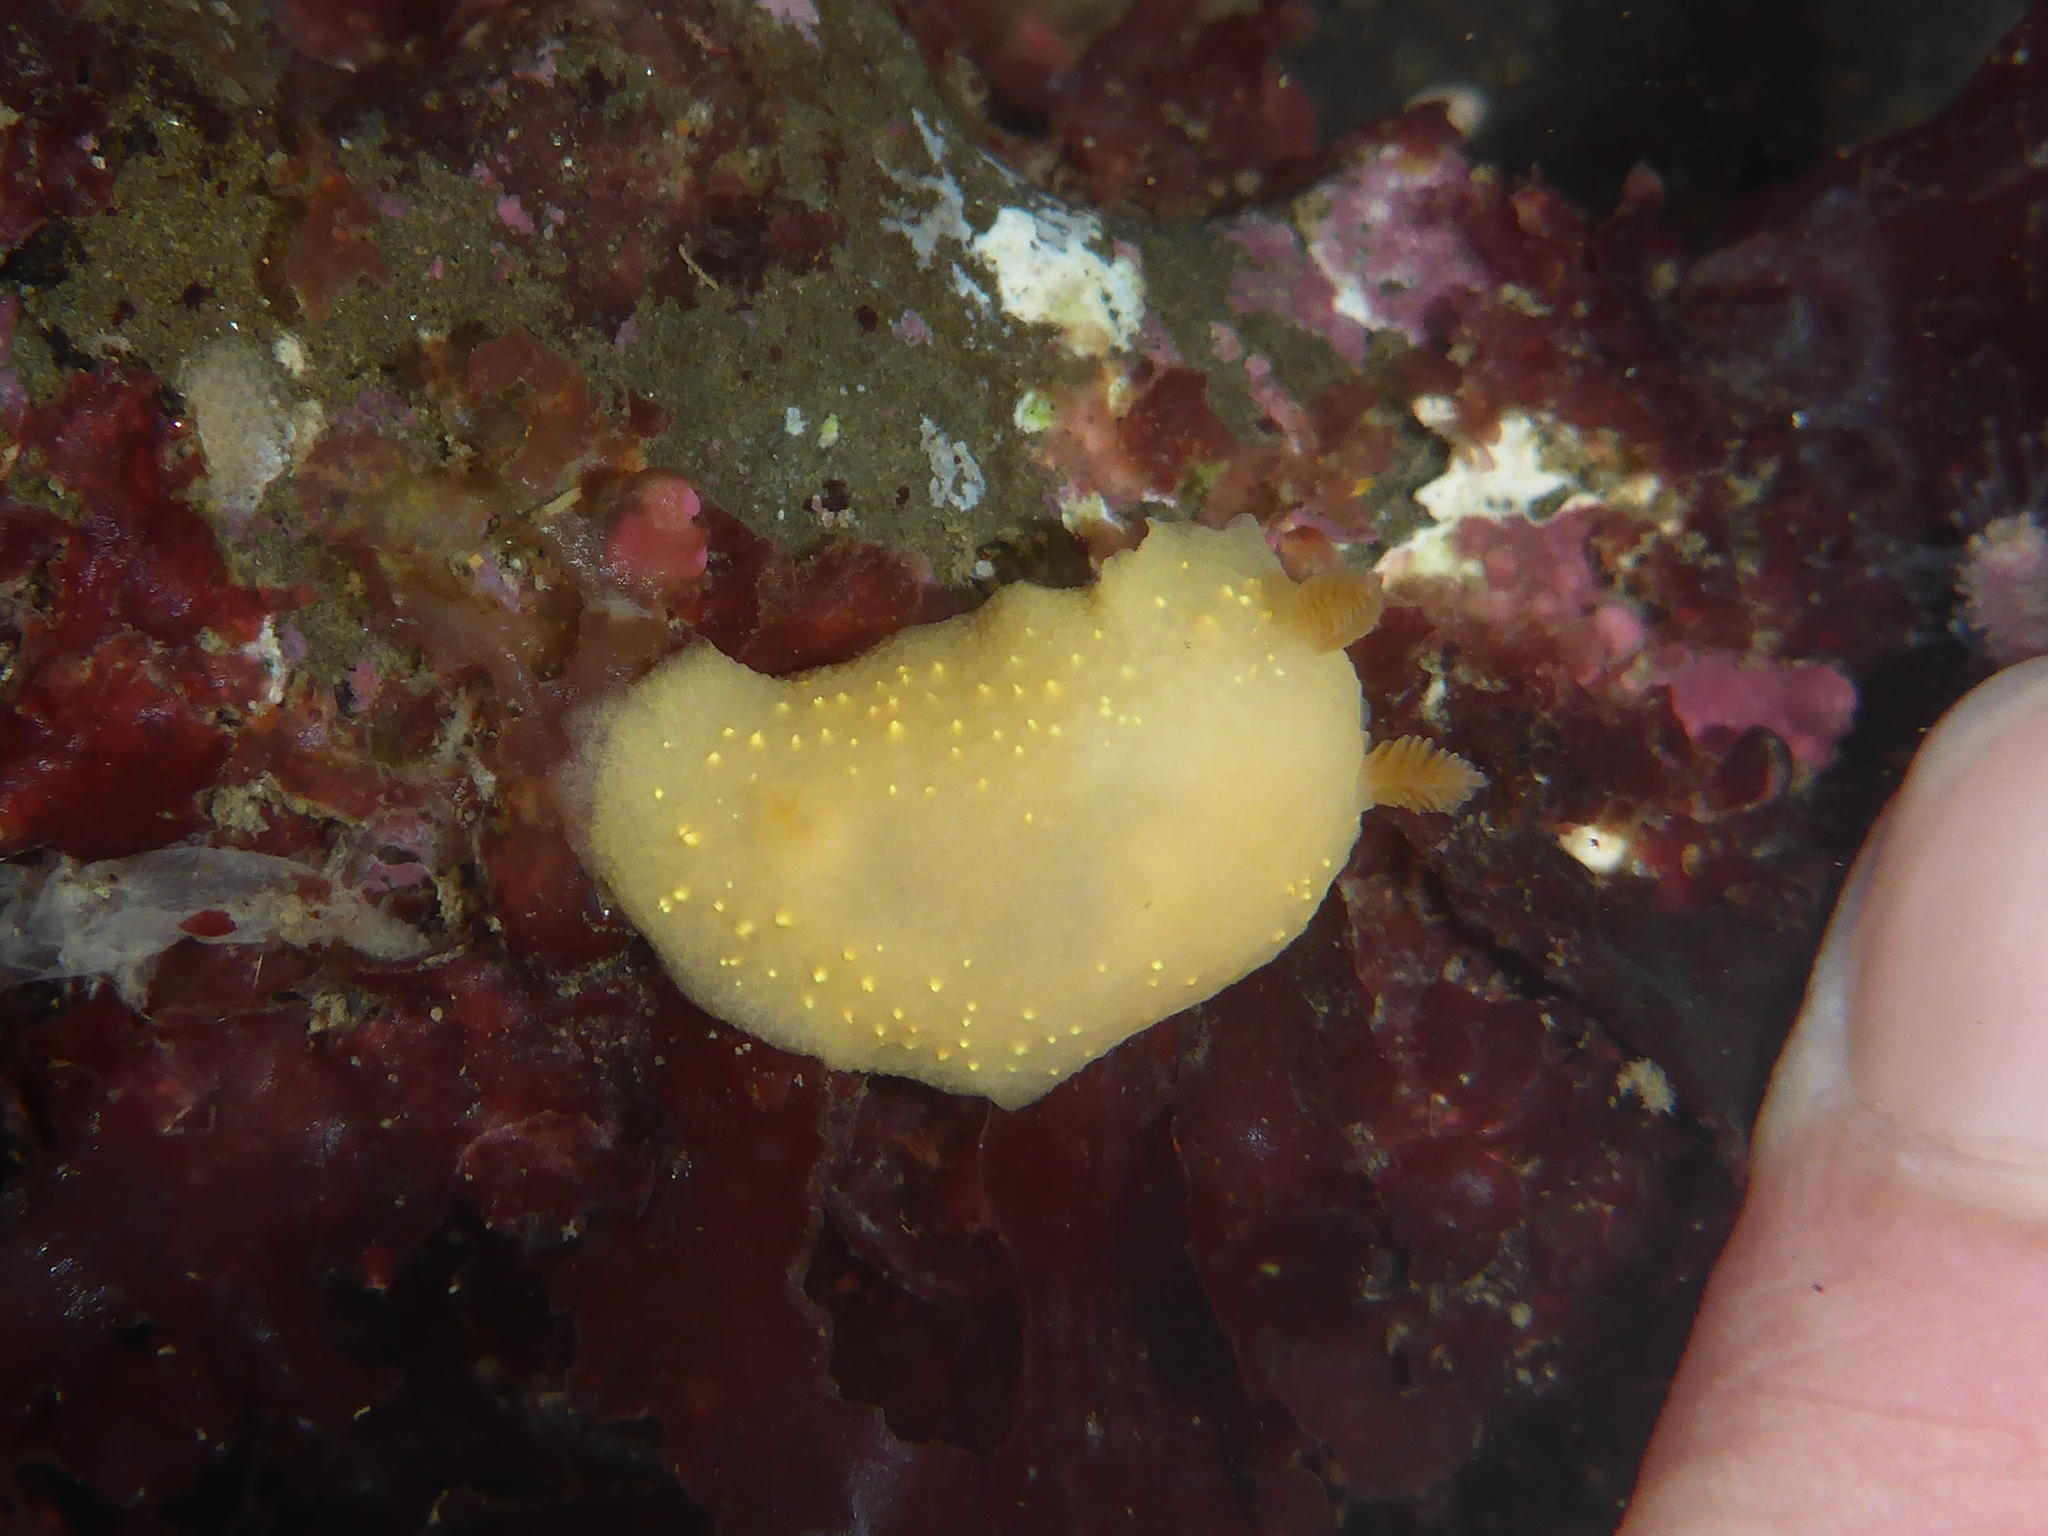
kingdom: Animalia
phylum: Mollusca
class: Gastropoda
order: Nudibranchia
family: Cadlinidae
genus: Cadlina
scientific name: Cadlina modesta
